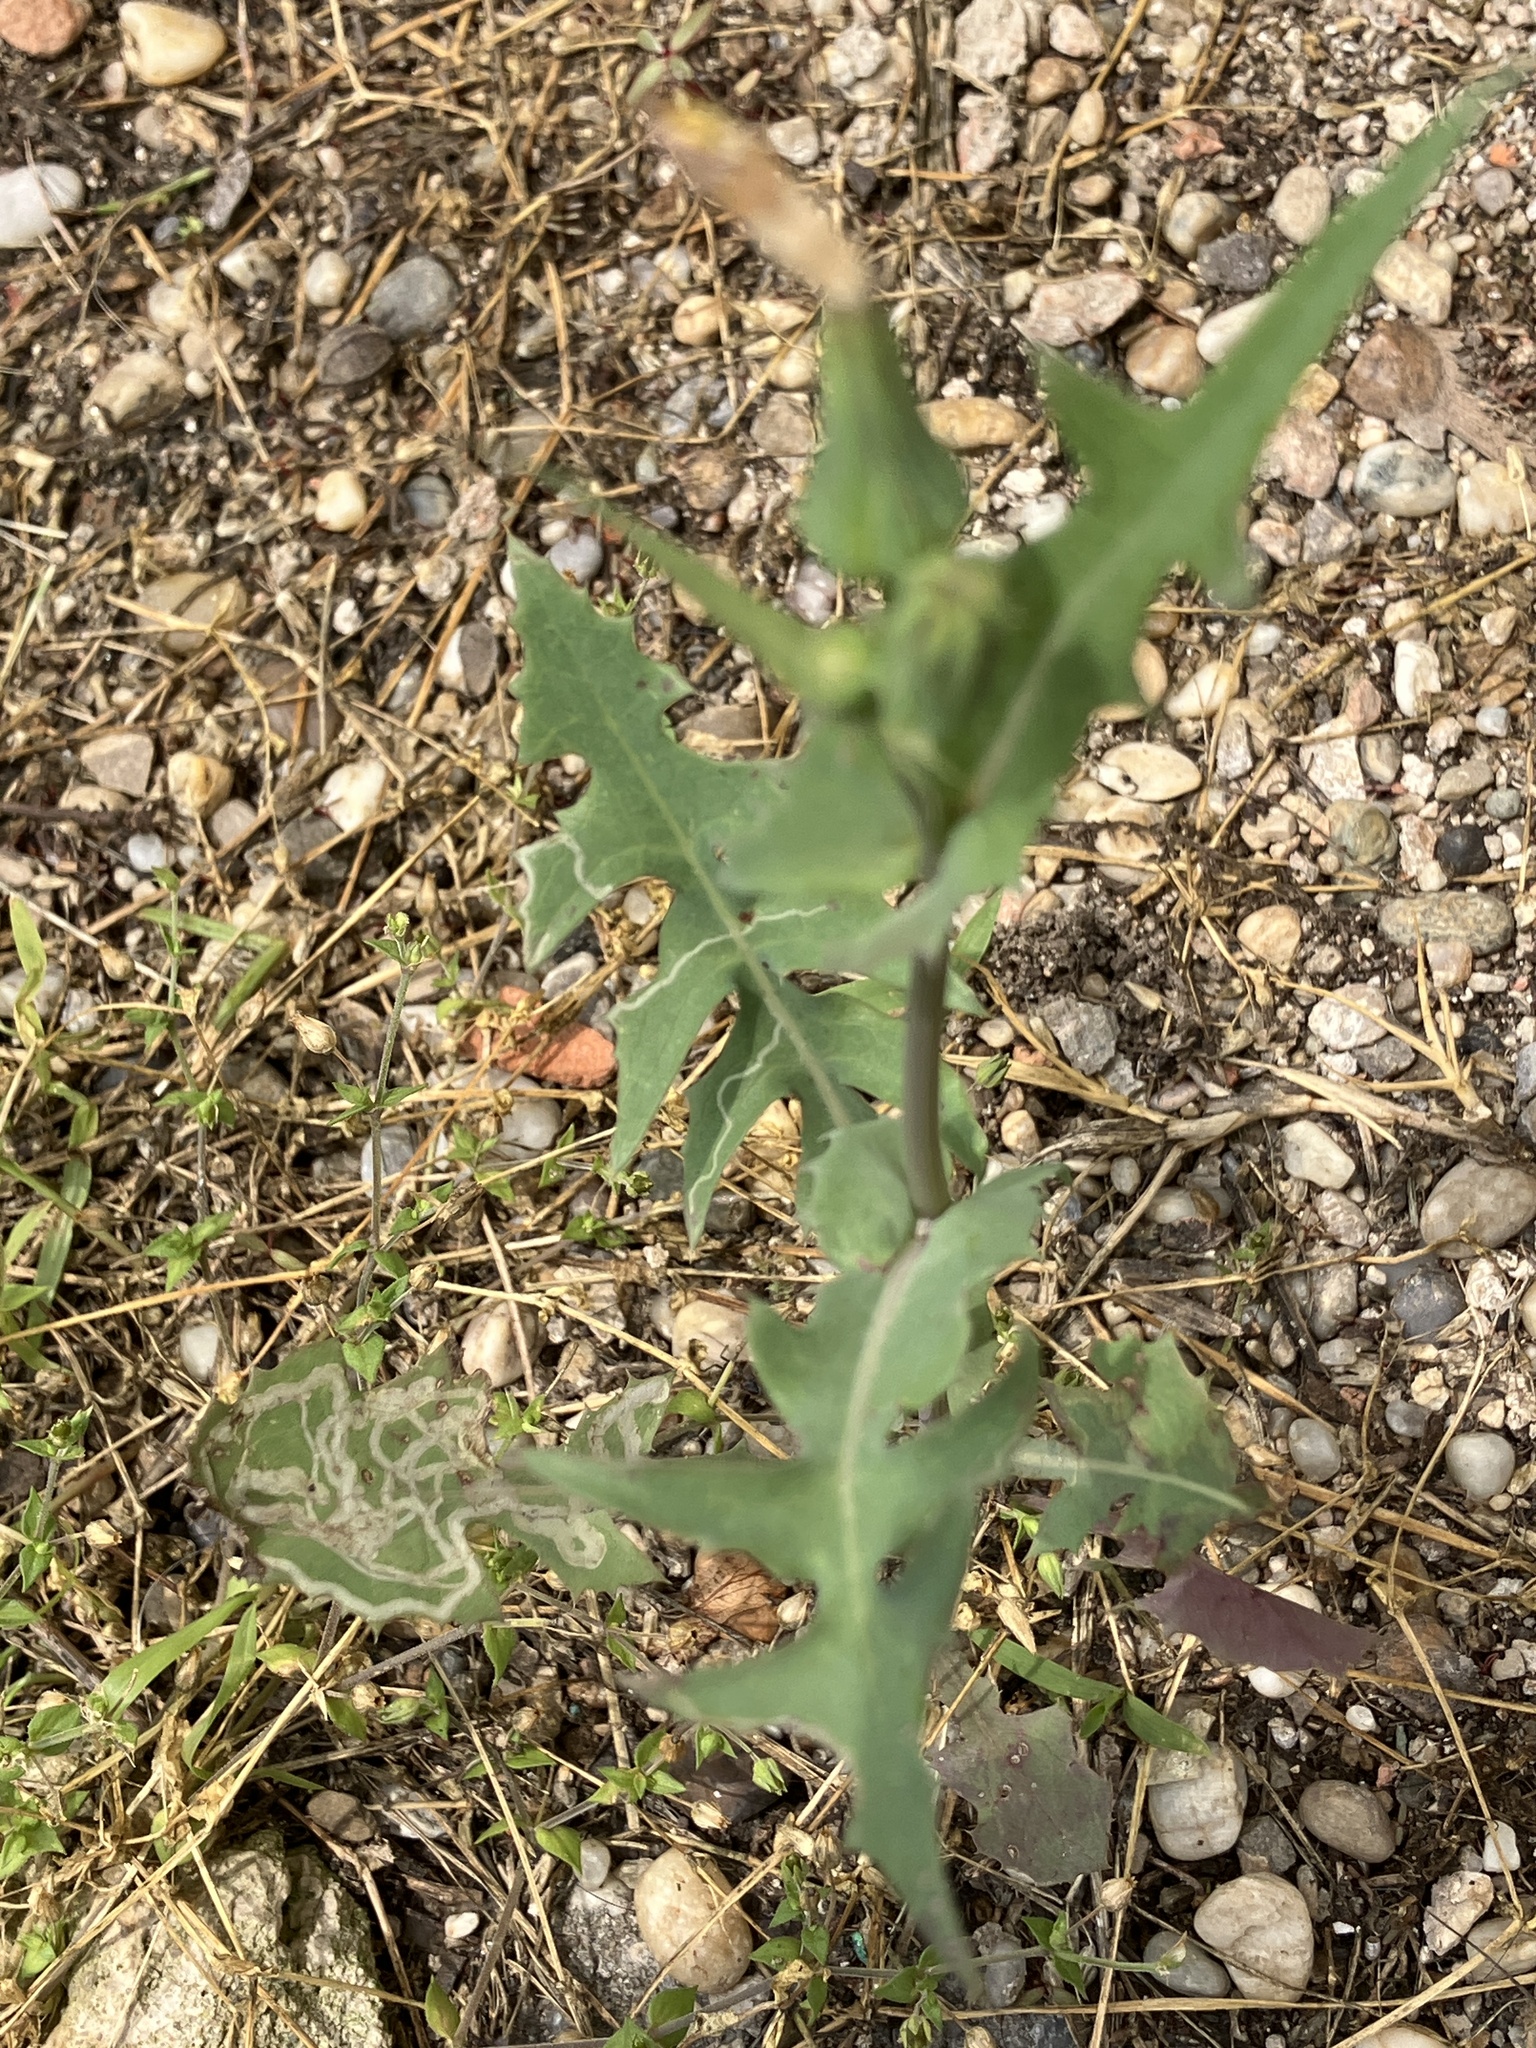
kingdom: Plantae
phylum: Tracheophyta
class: Magnoliopsida
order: Asterales
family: Asteraceae
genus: Sonchus
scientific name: Sonchus oleraceus
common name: Common sowthistle
